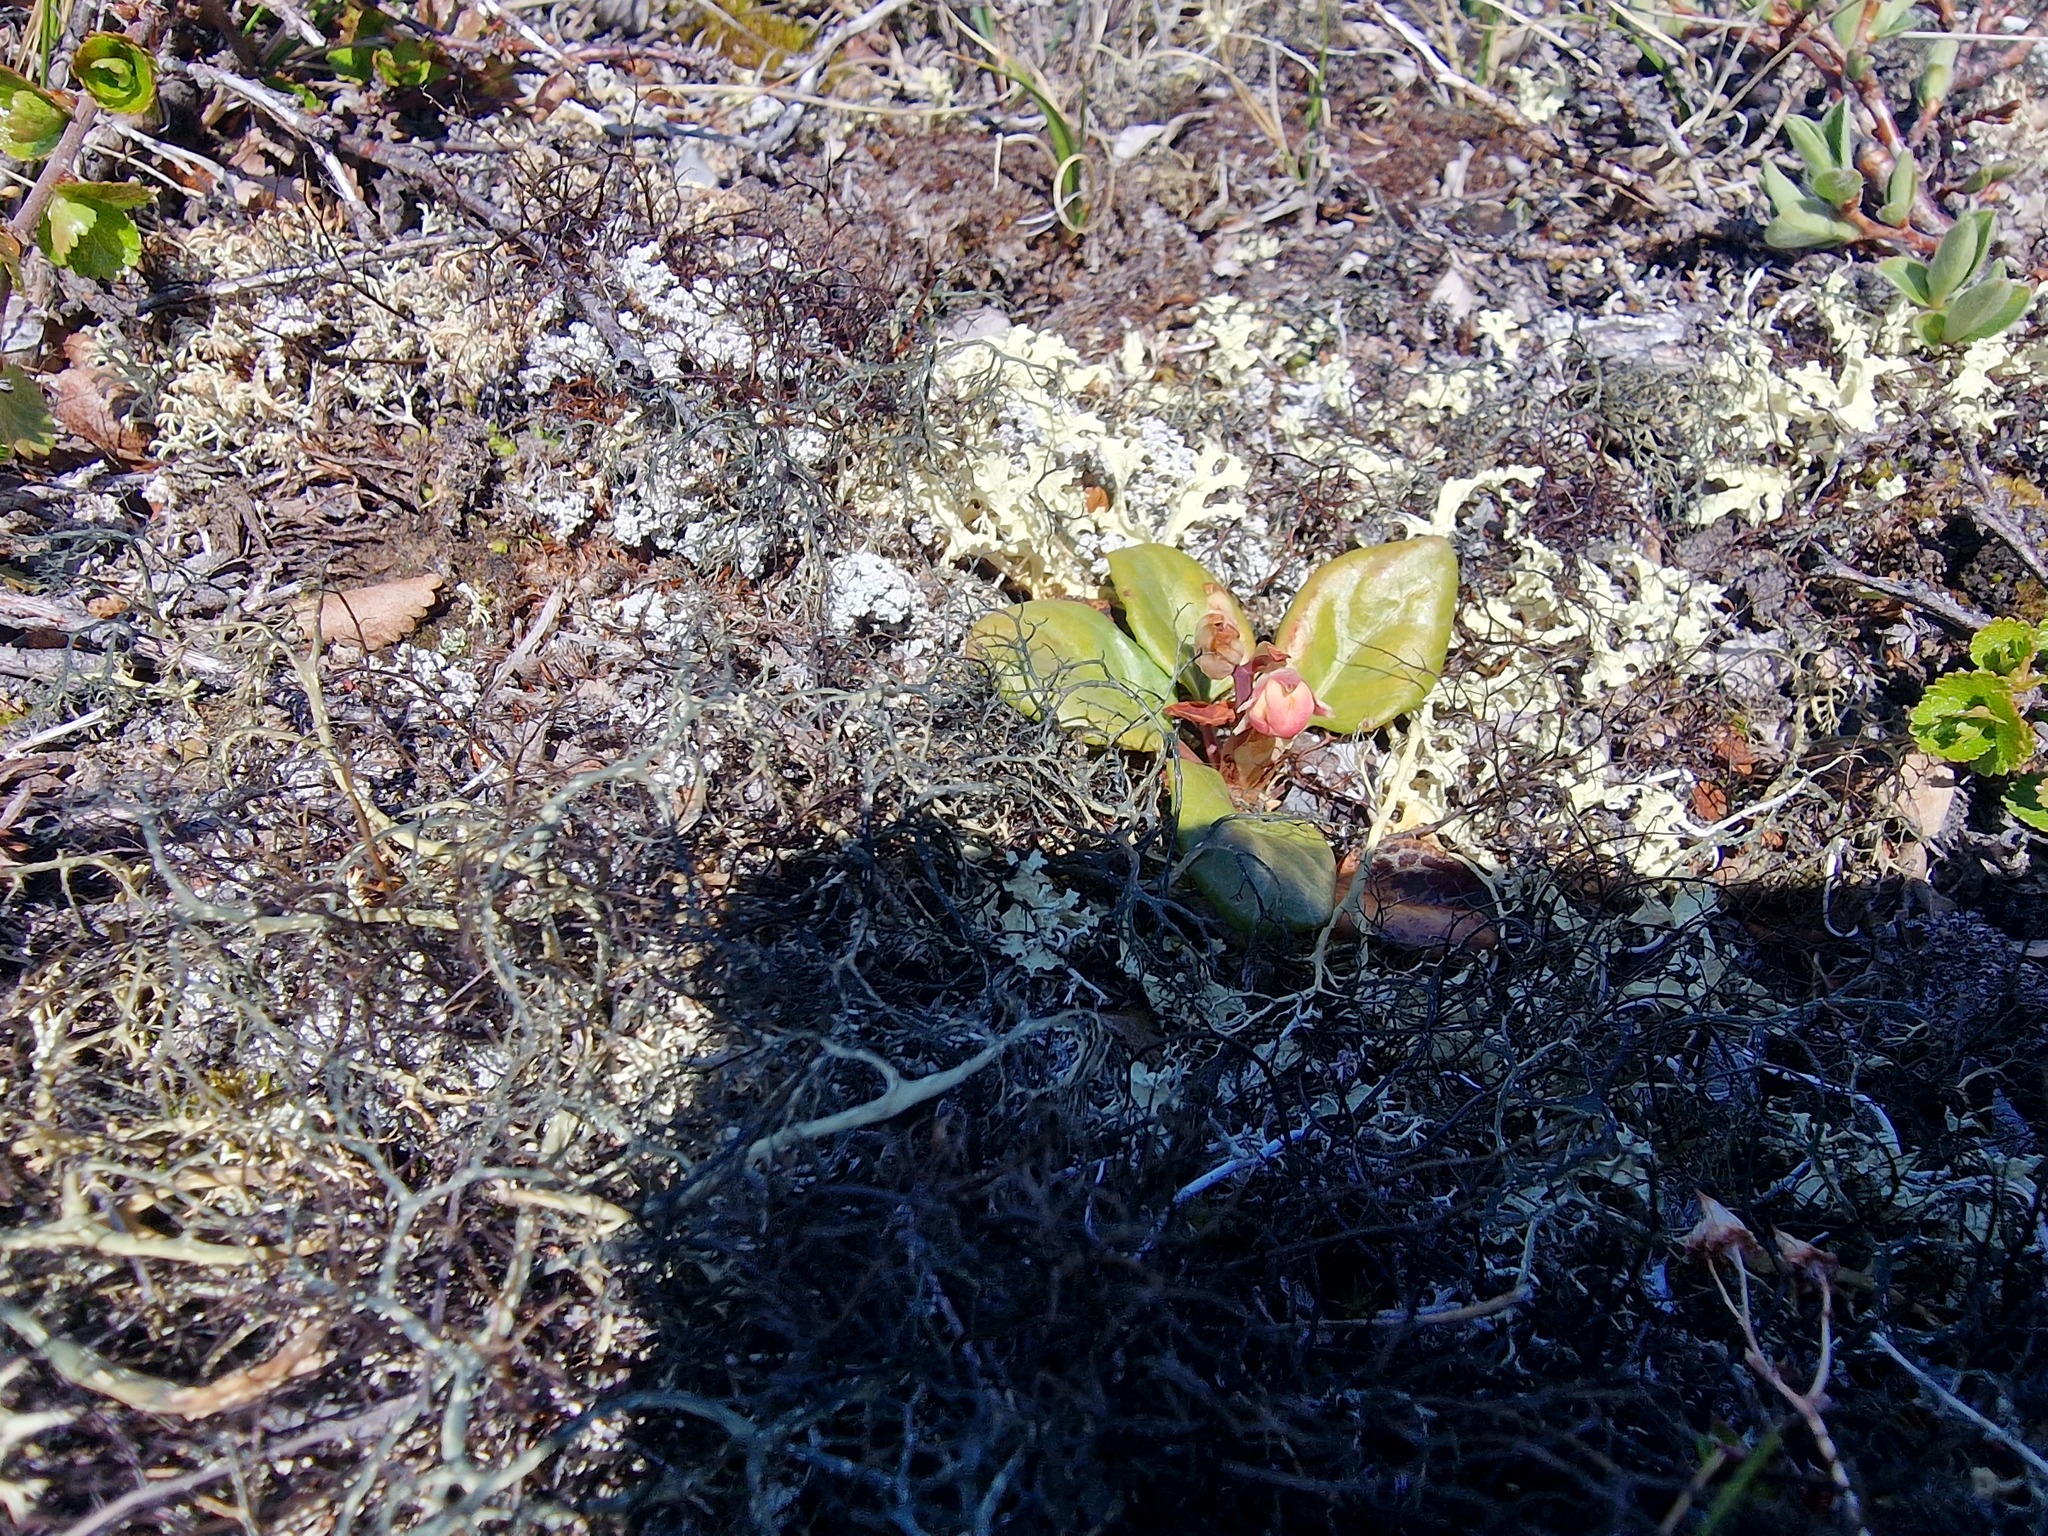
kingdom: Plantae
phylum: Tracheophyta
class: Magnoliopsida
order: Ericales
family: Ericaceae
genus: Pyrola
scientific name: Pyrola grandiflora
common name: Arctic pyrola
